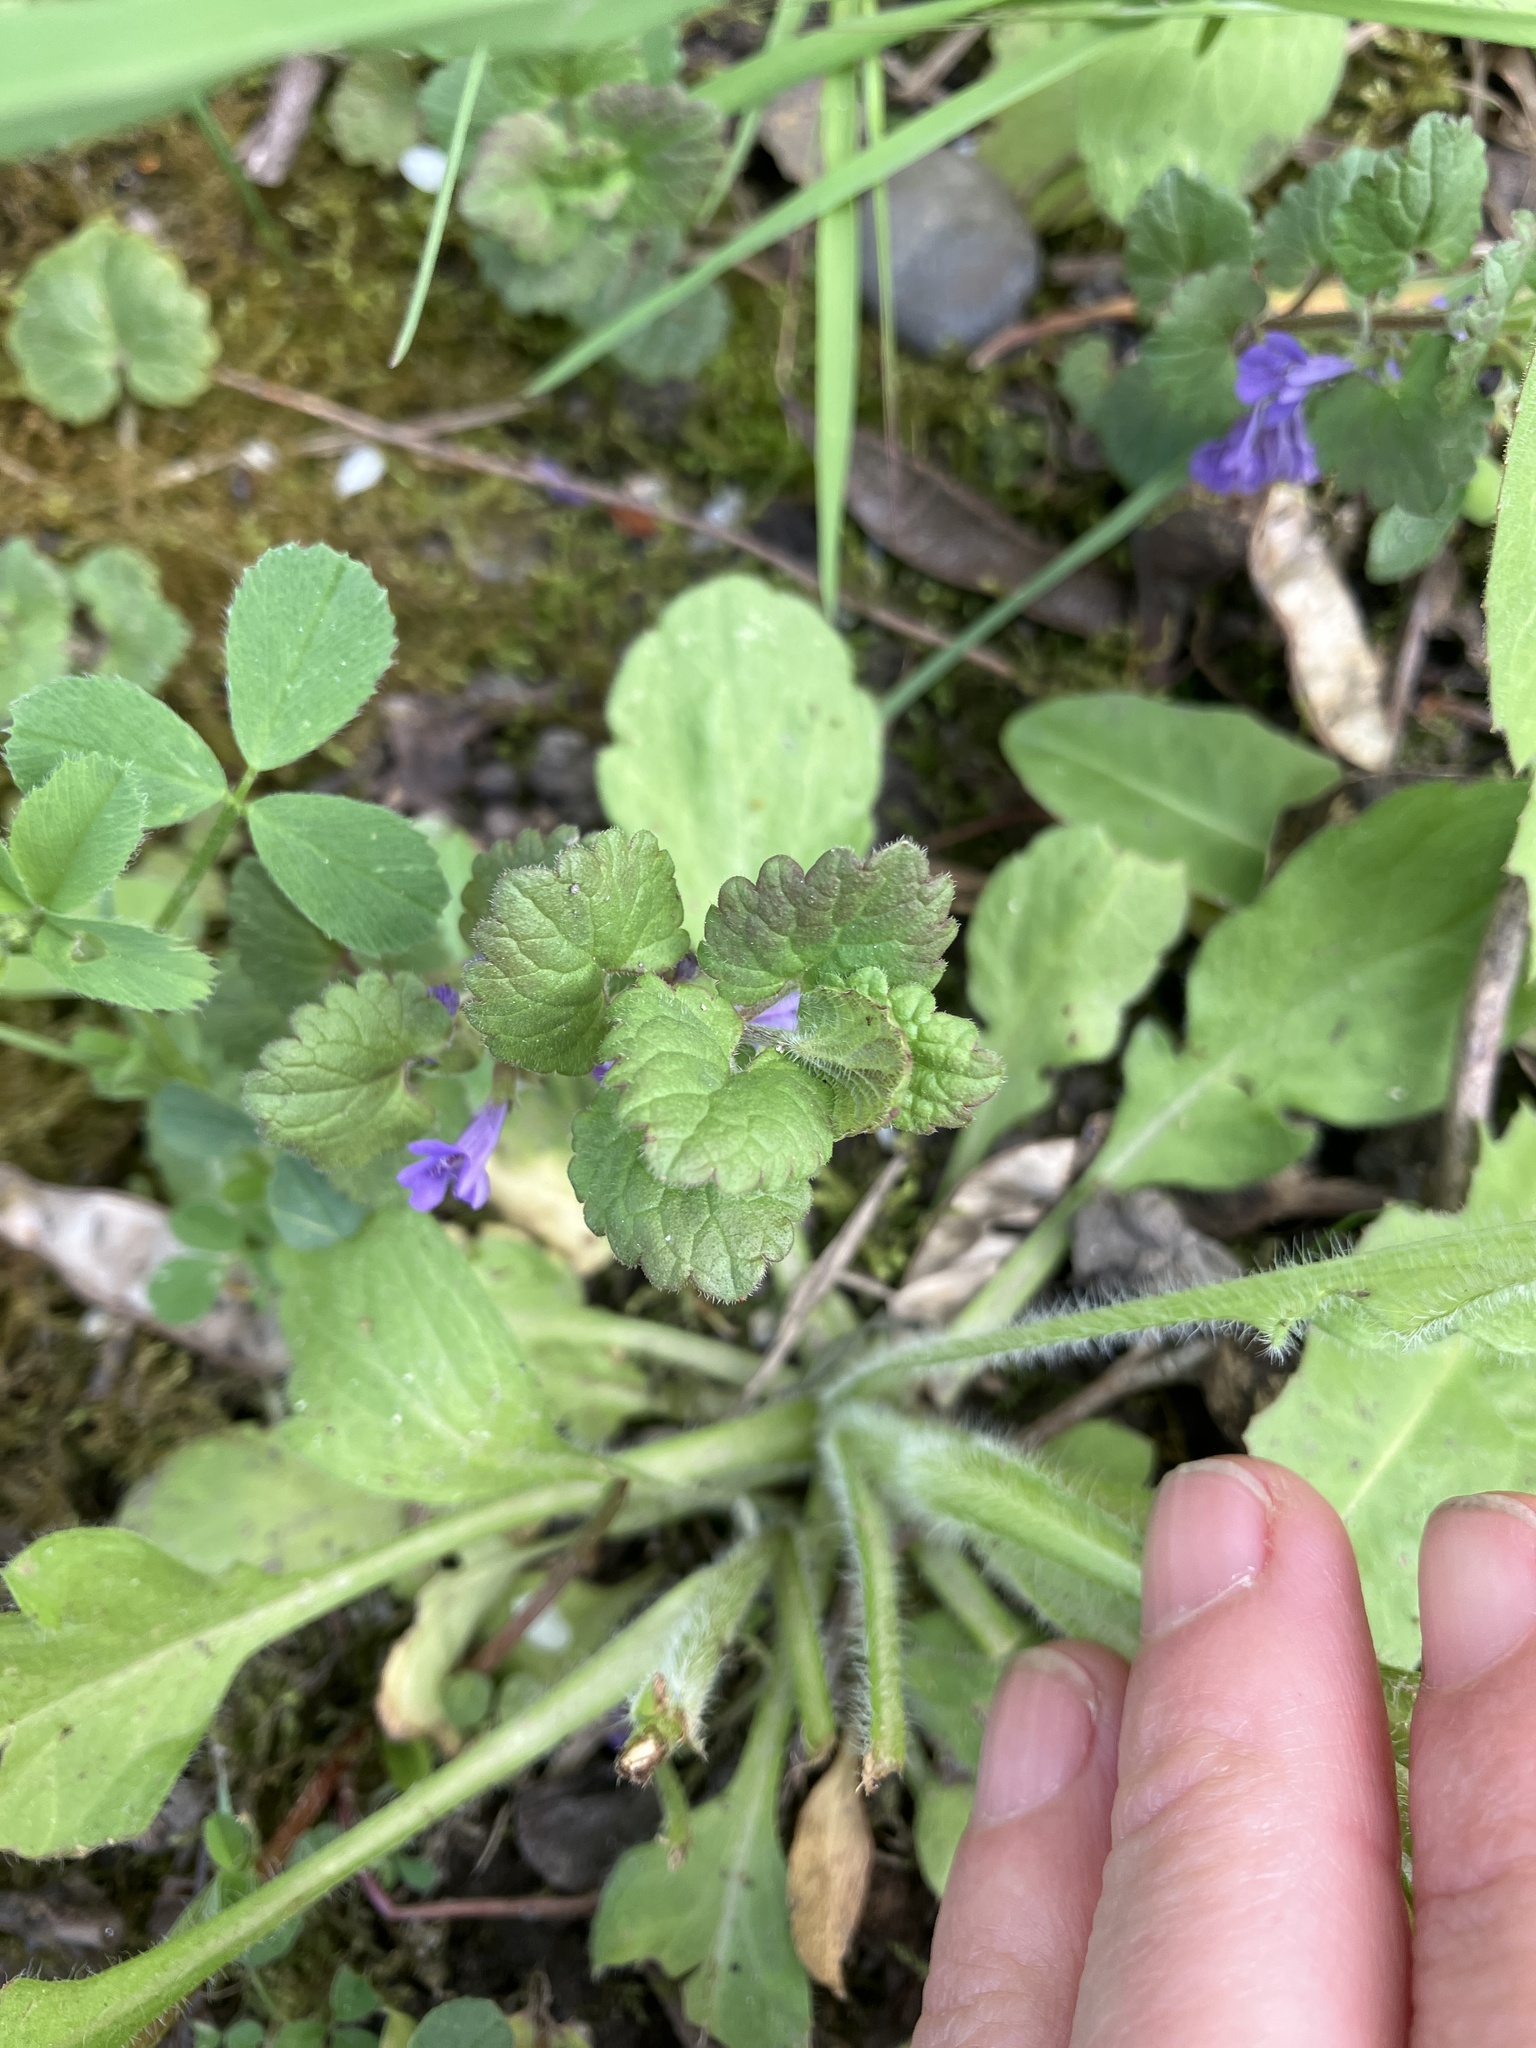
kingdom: Plantae
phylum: Tracheophyta
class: Magnoliopsida
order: Lamiales
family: Lamiaceae
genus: Glechoma
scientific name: Glechoma hederacea
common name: Ground ivy
